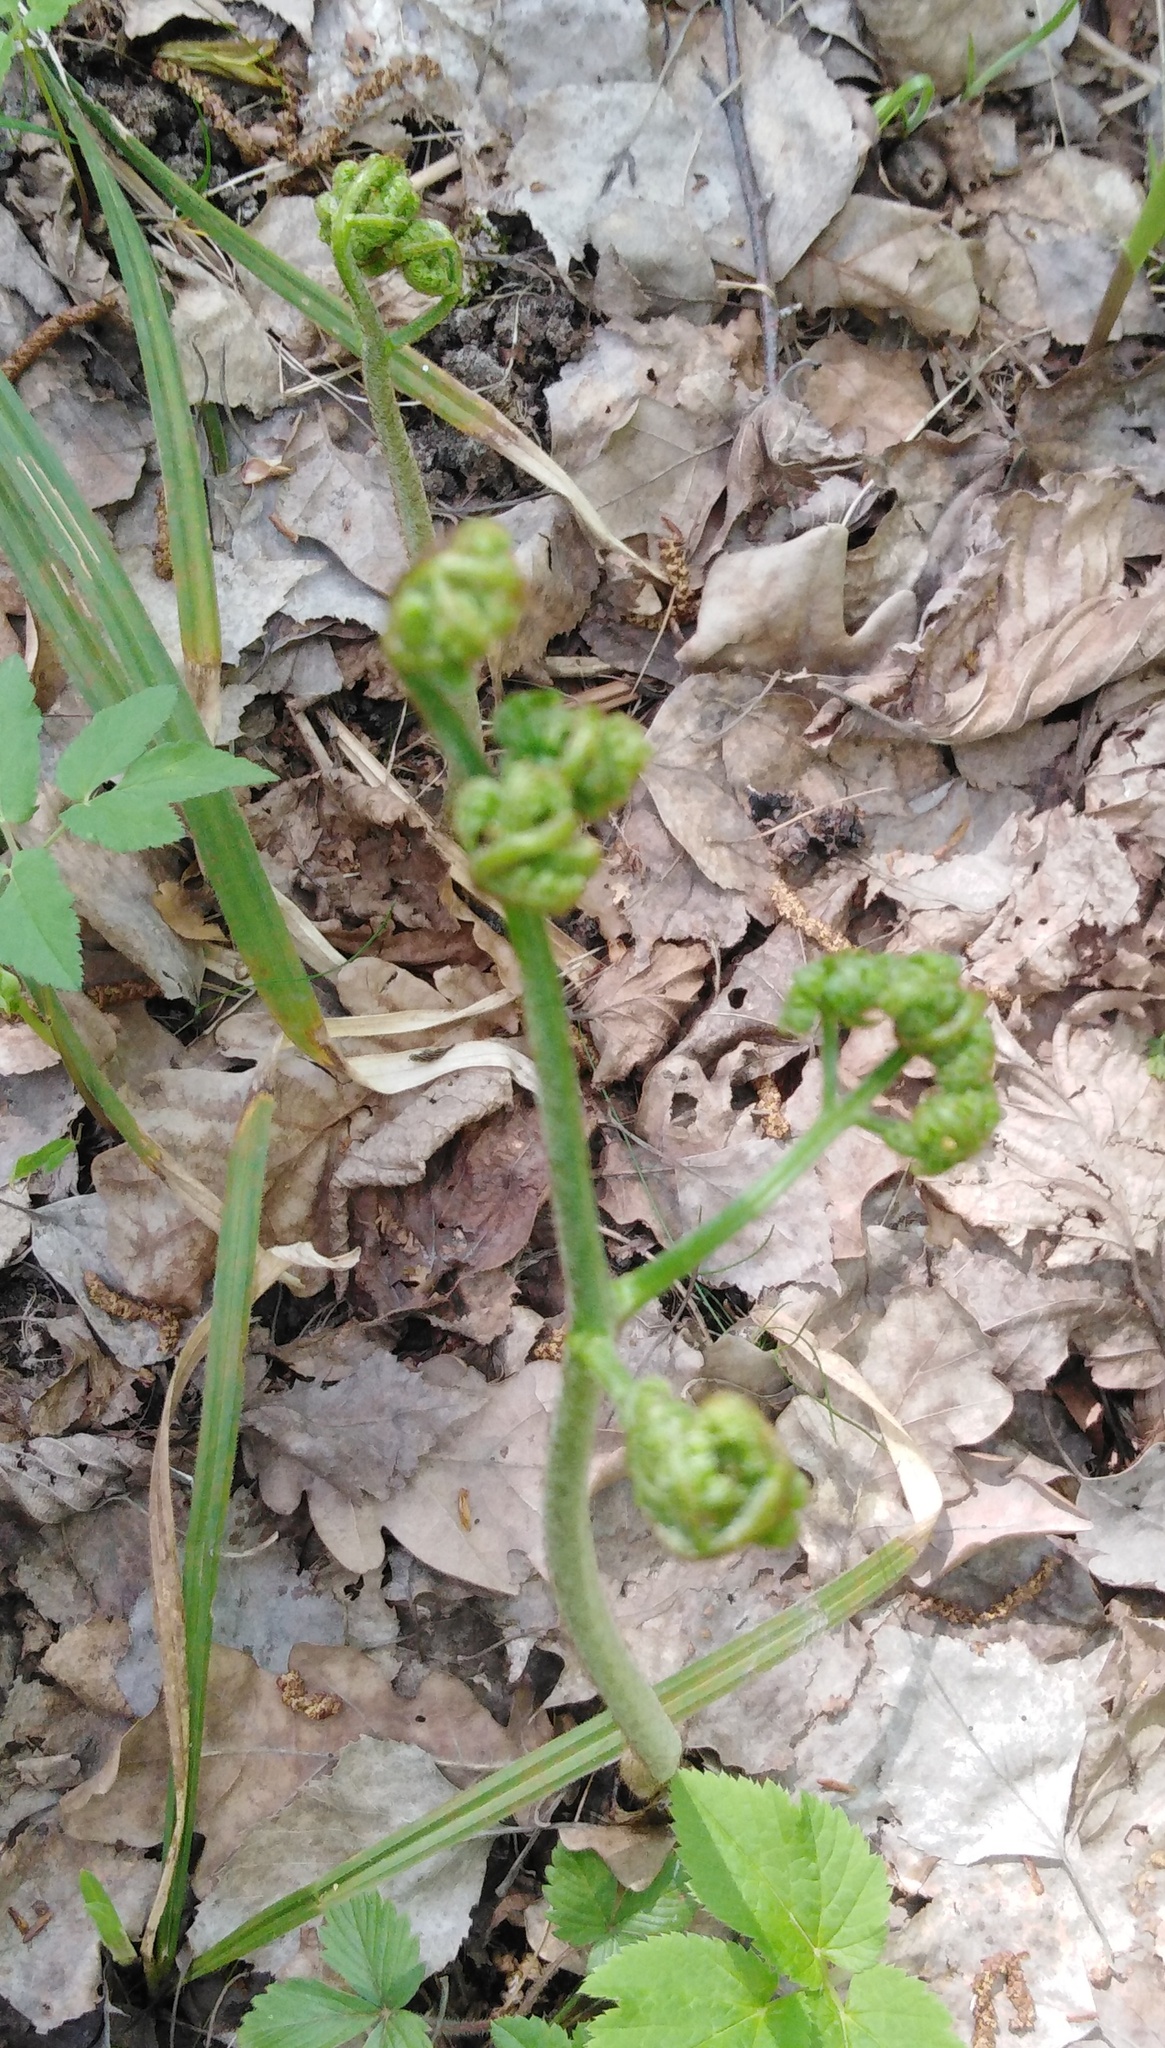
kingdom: Plantae
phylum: Tracheophyta
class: Polypodiopsida
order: Polypodiales
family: Dennstaedtiaceae
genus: Pteridium
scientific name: Pteridium aquilinum
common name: Bracken
